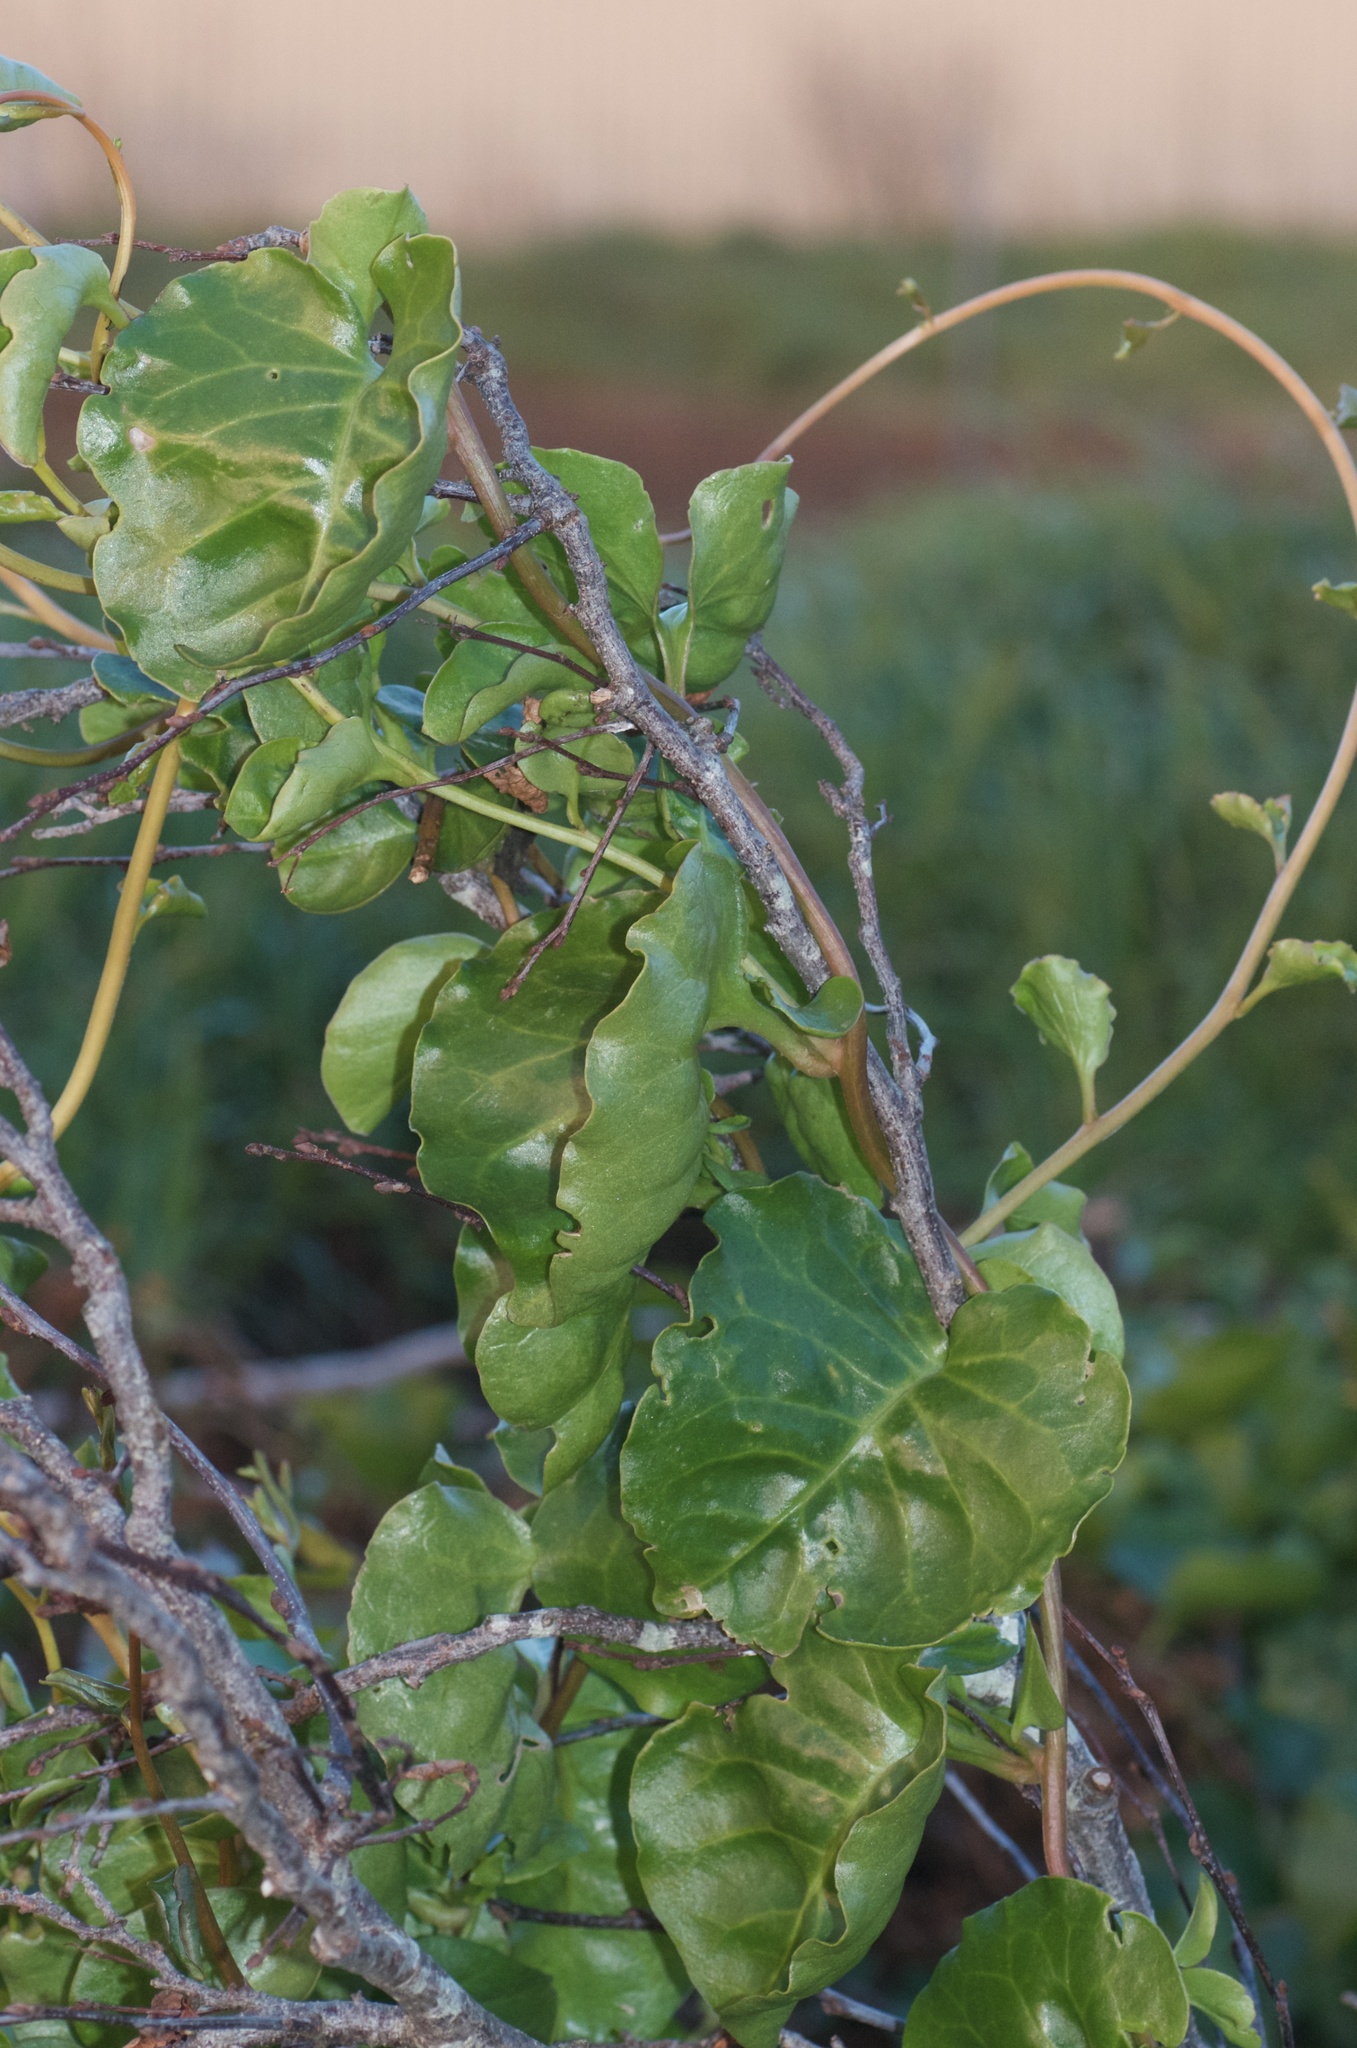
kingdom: Plantae
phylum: Tracheophyta
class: Magnoliopsida
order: Caryophyllales
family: Basellaceae
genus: Anredera
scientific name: Anredera cordifolia
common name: Heartleaf madeiravine
